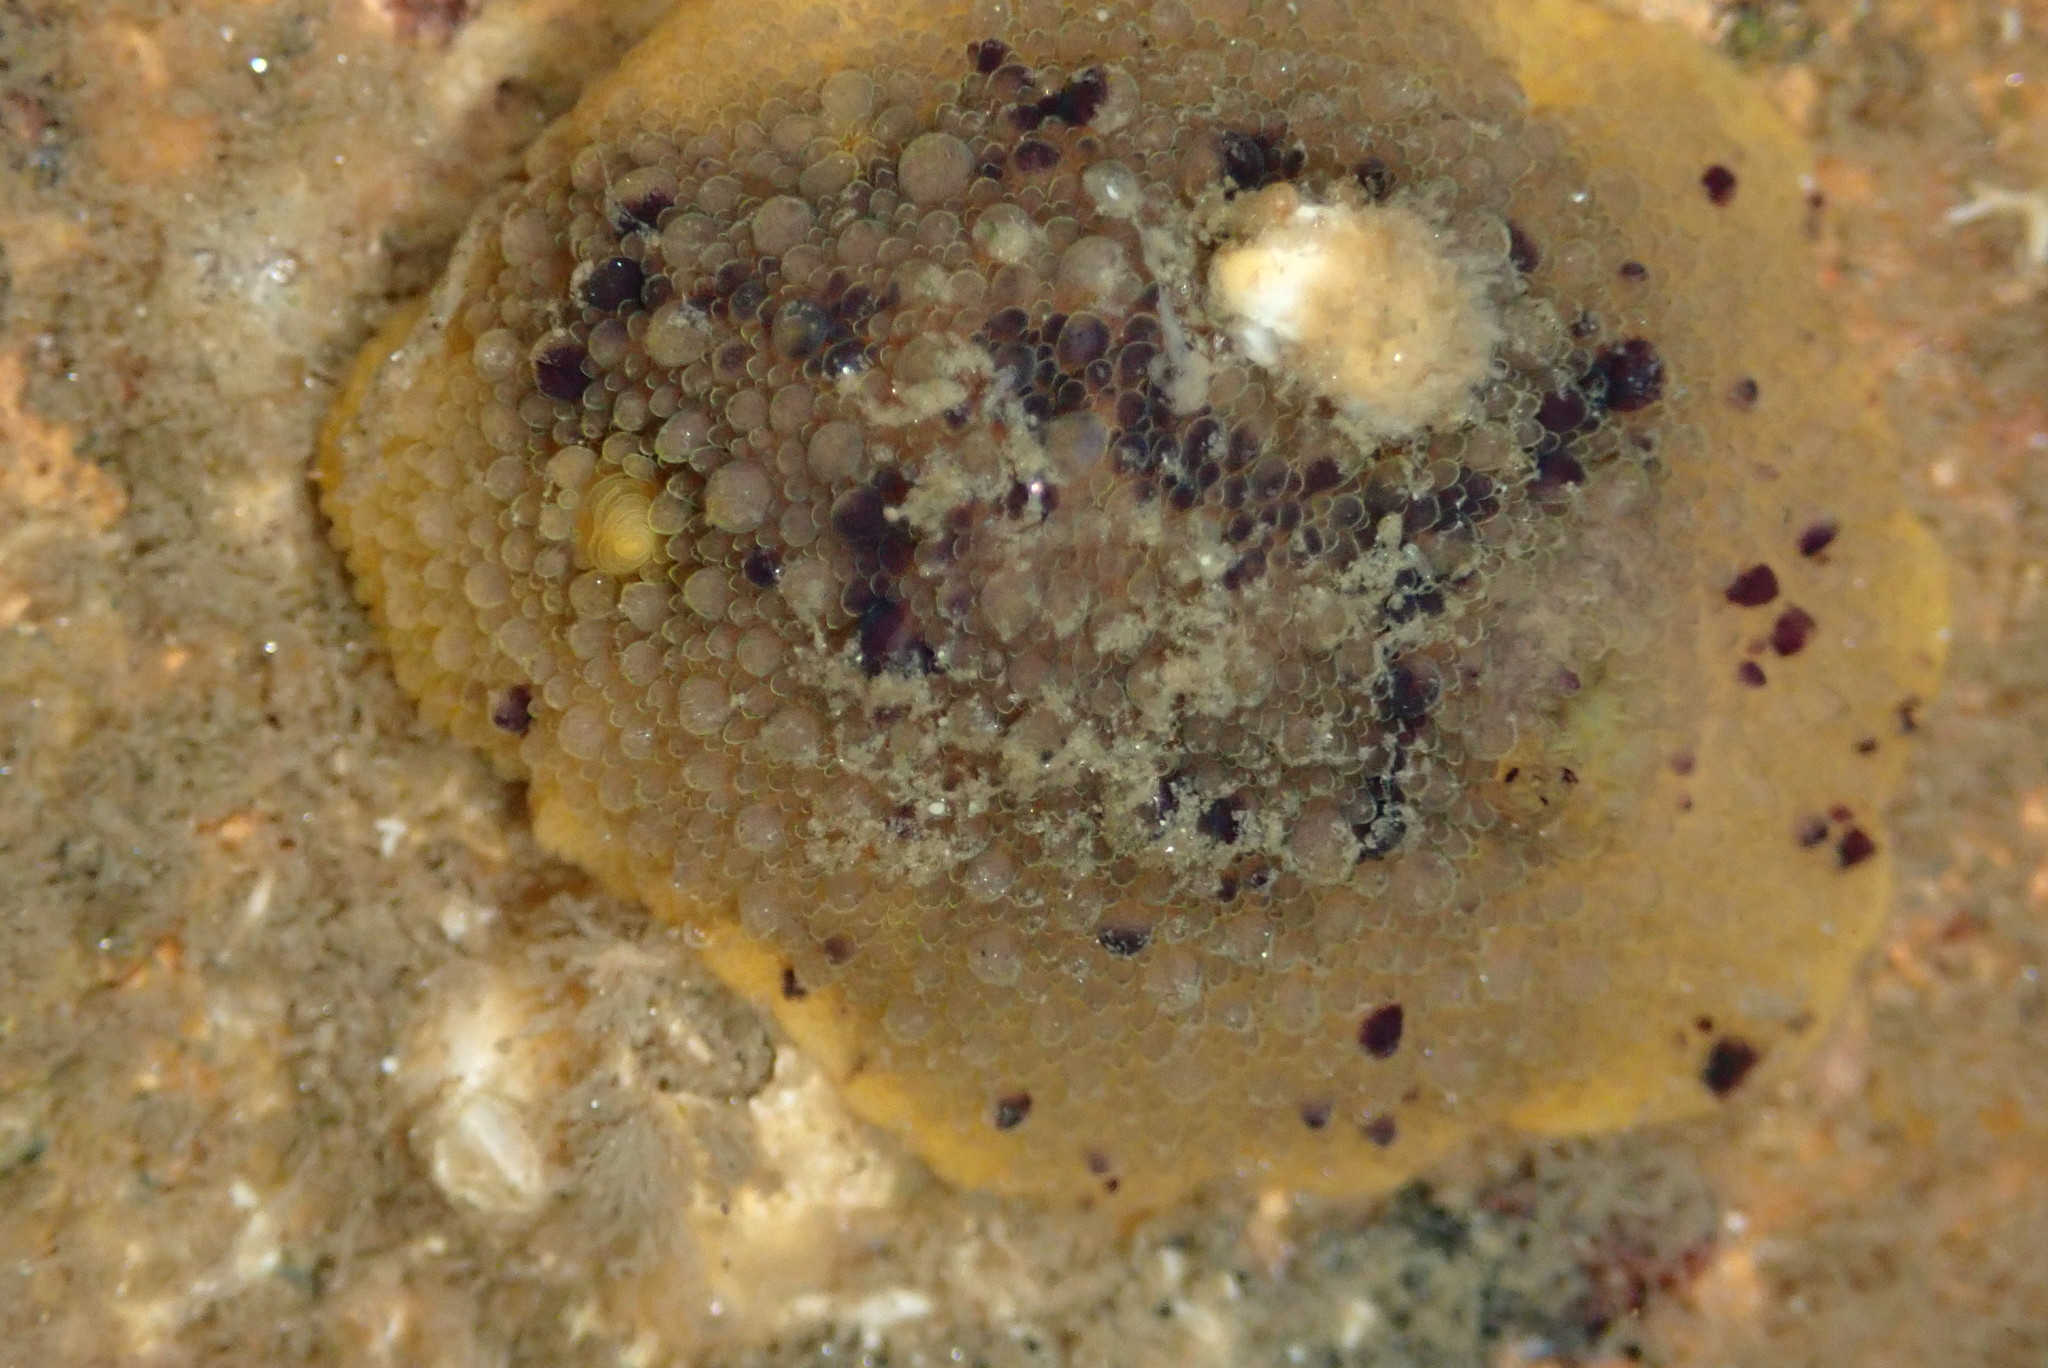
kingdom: Animalia
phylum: Mollusca
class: Gastropoda
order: Nudibranchia
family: Dorididae
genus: Doris
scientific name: Doris montereyensis
